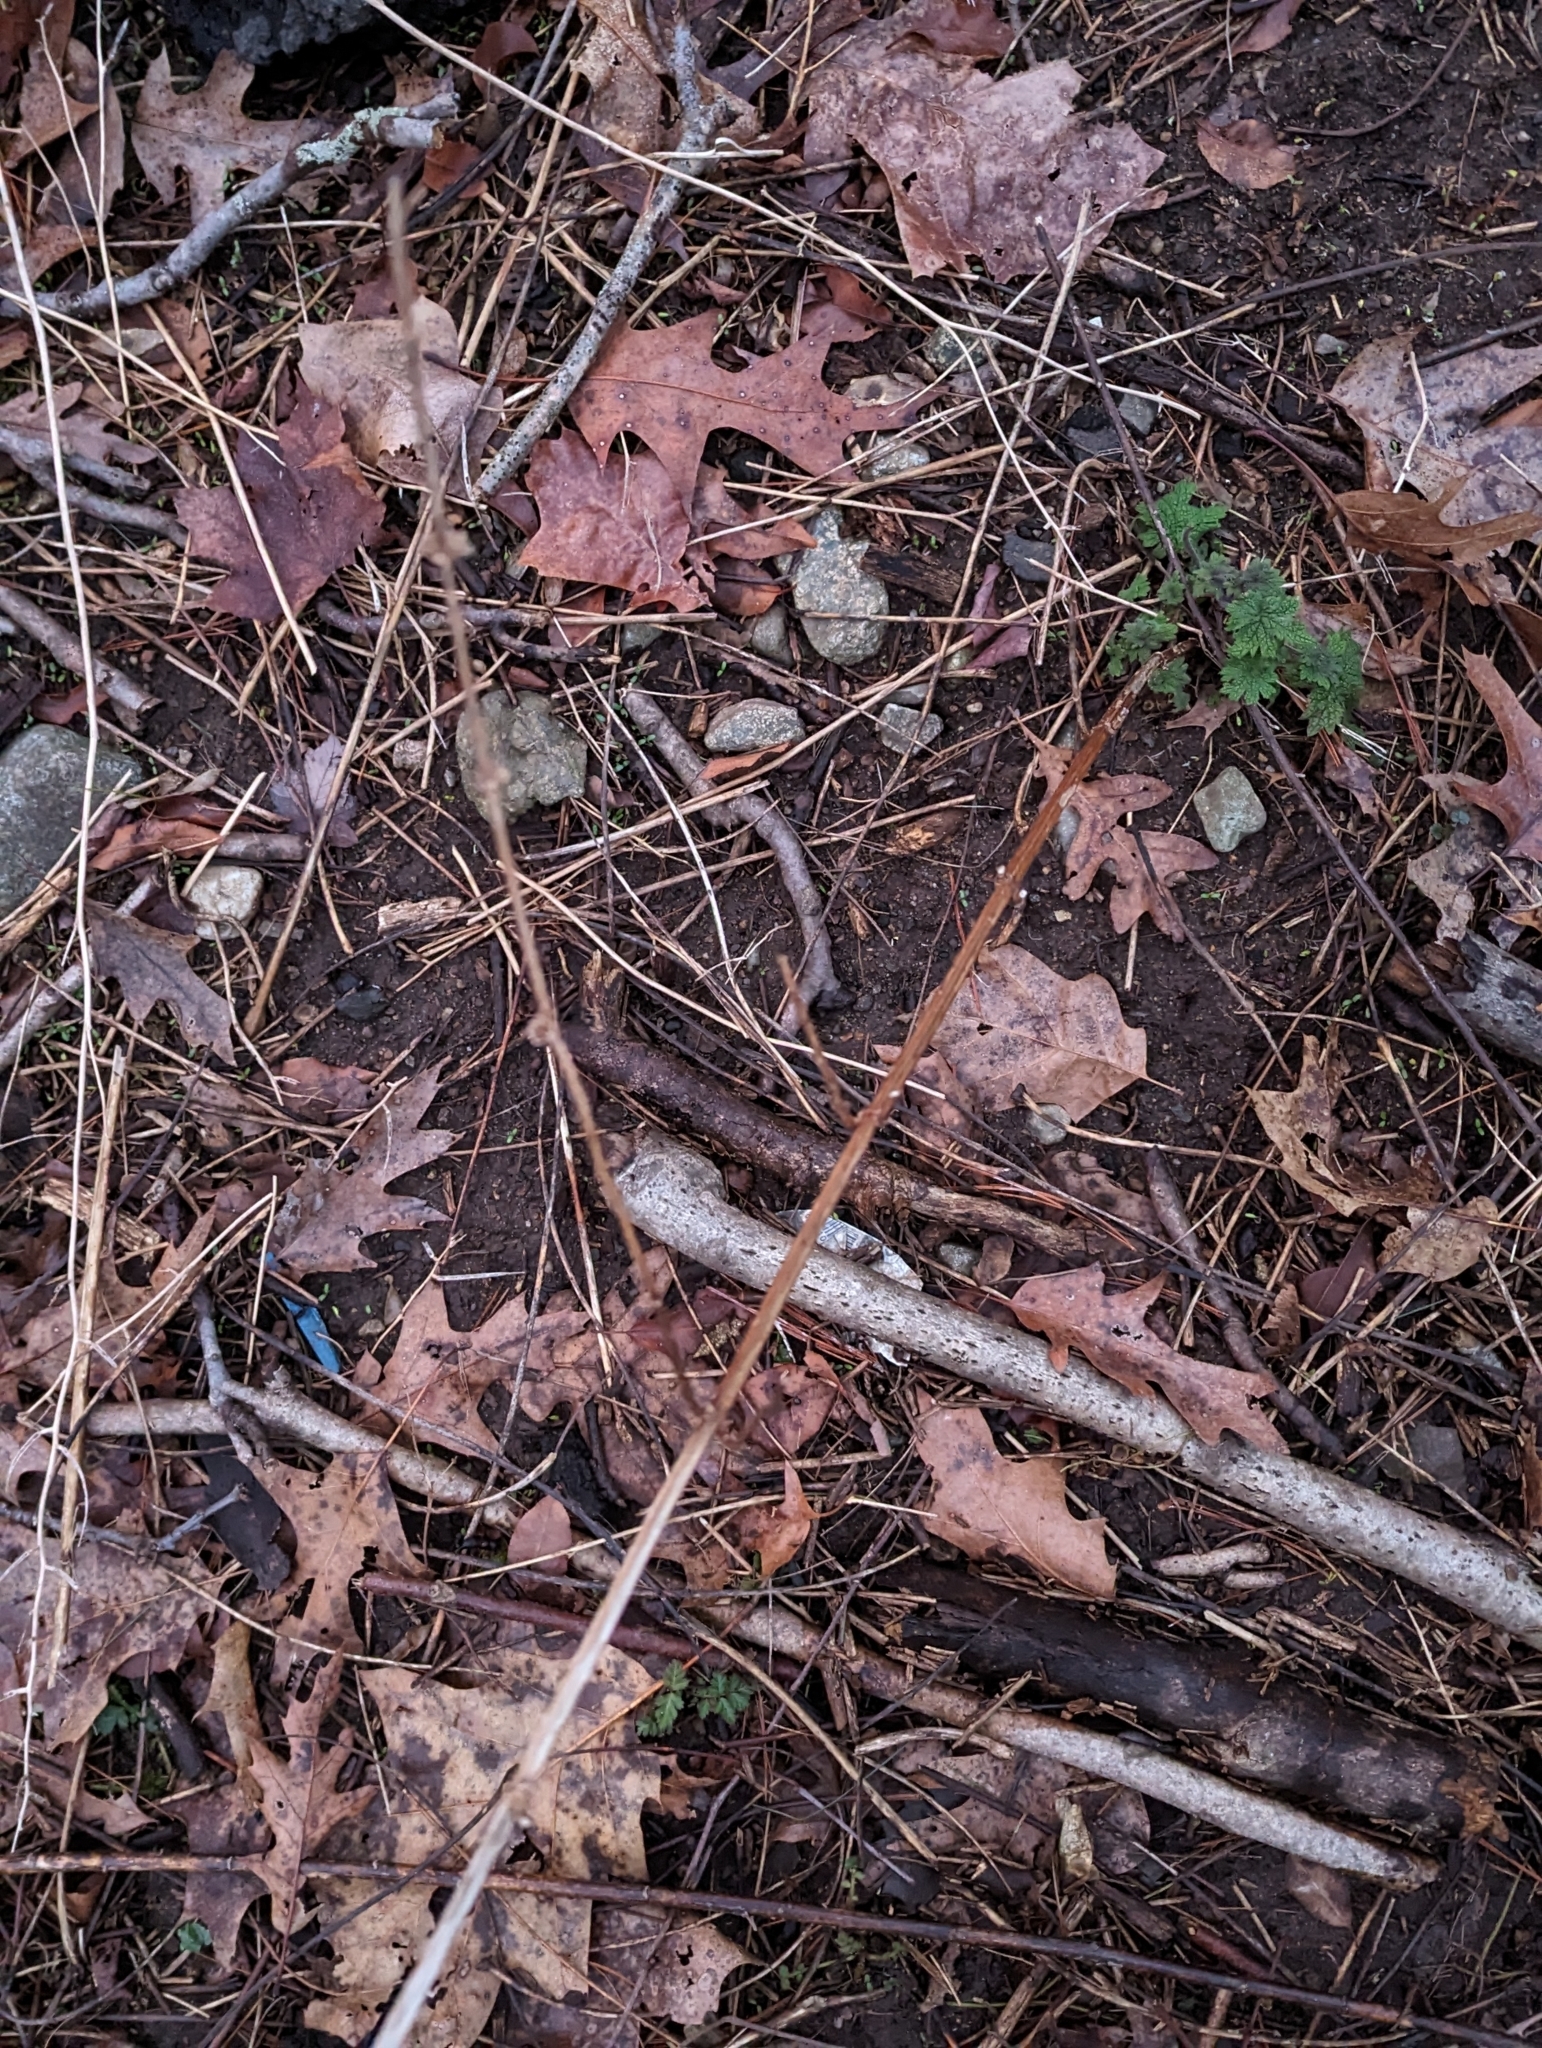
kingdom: Plantae
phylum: Tracheophyta
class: Magnoliopsida
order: Lamiales
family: Lamiaceae
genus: Leonurus
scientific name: Leonurus cardiaca
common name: Motherwort
